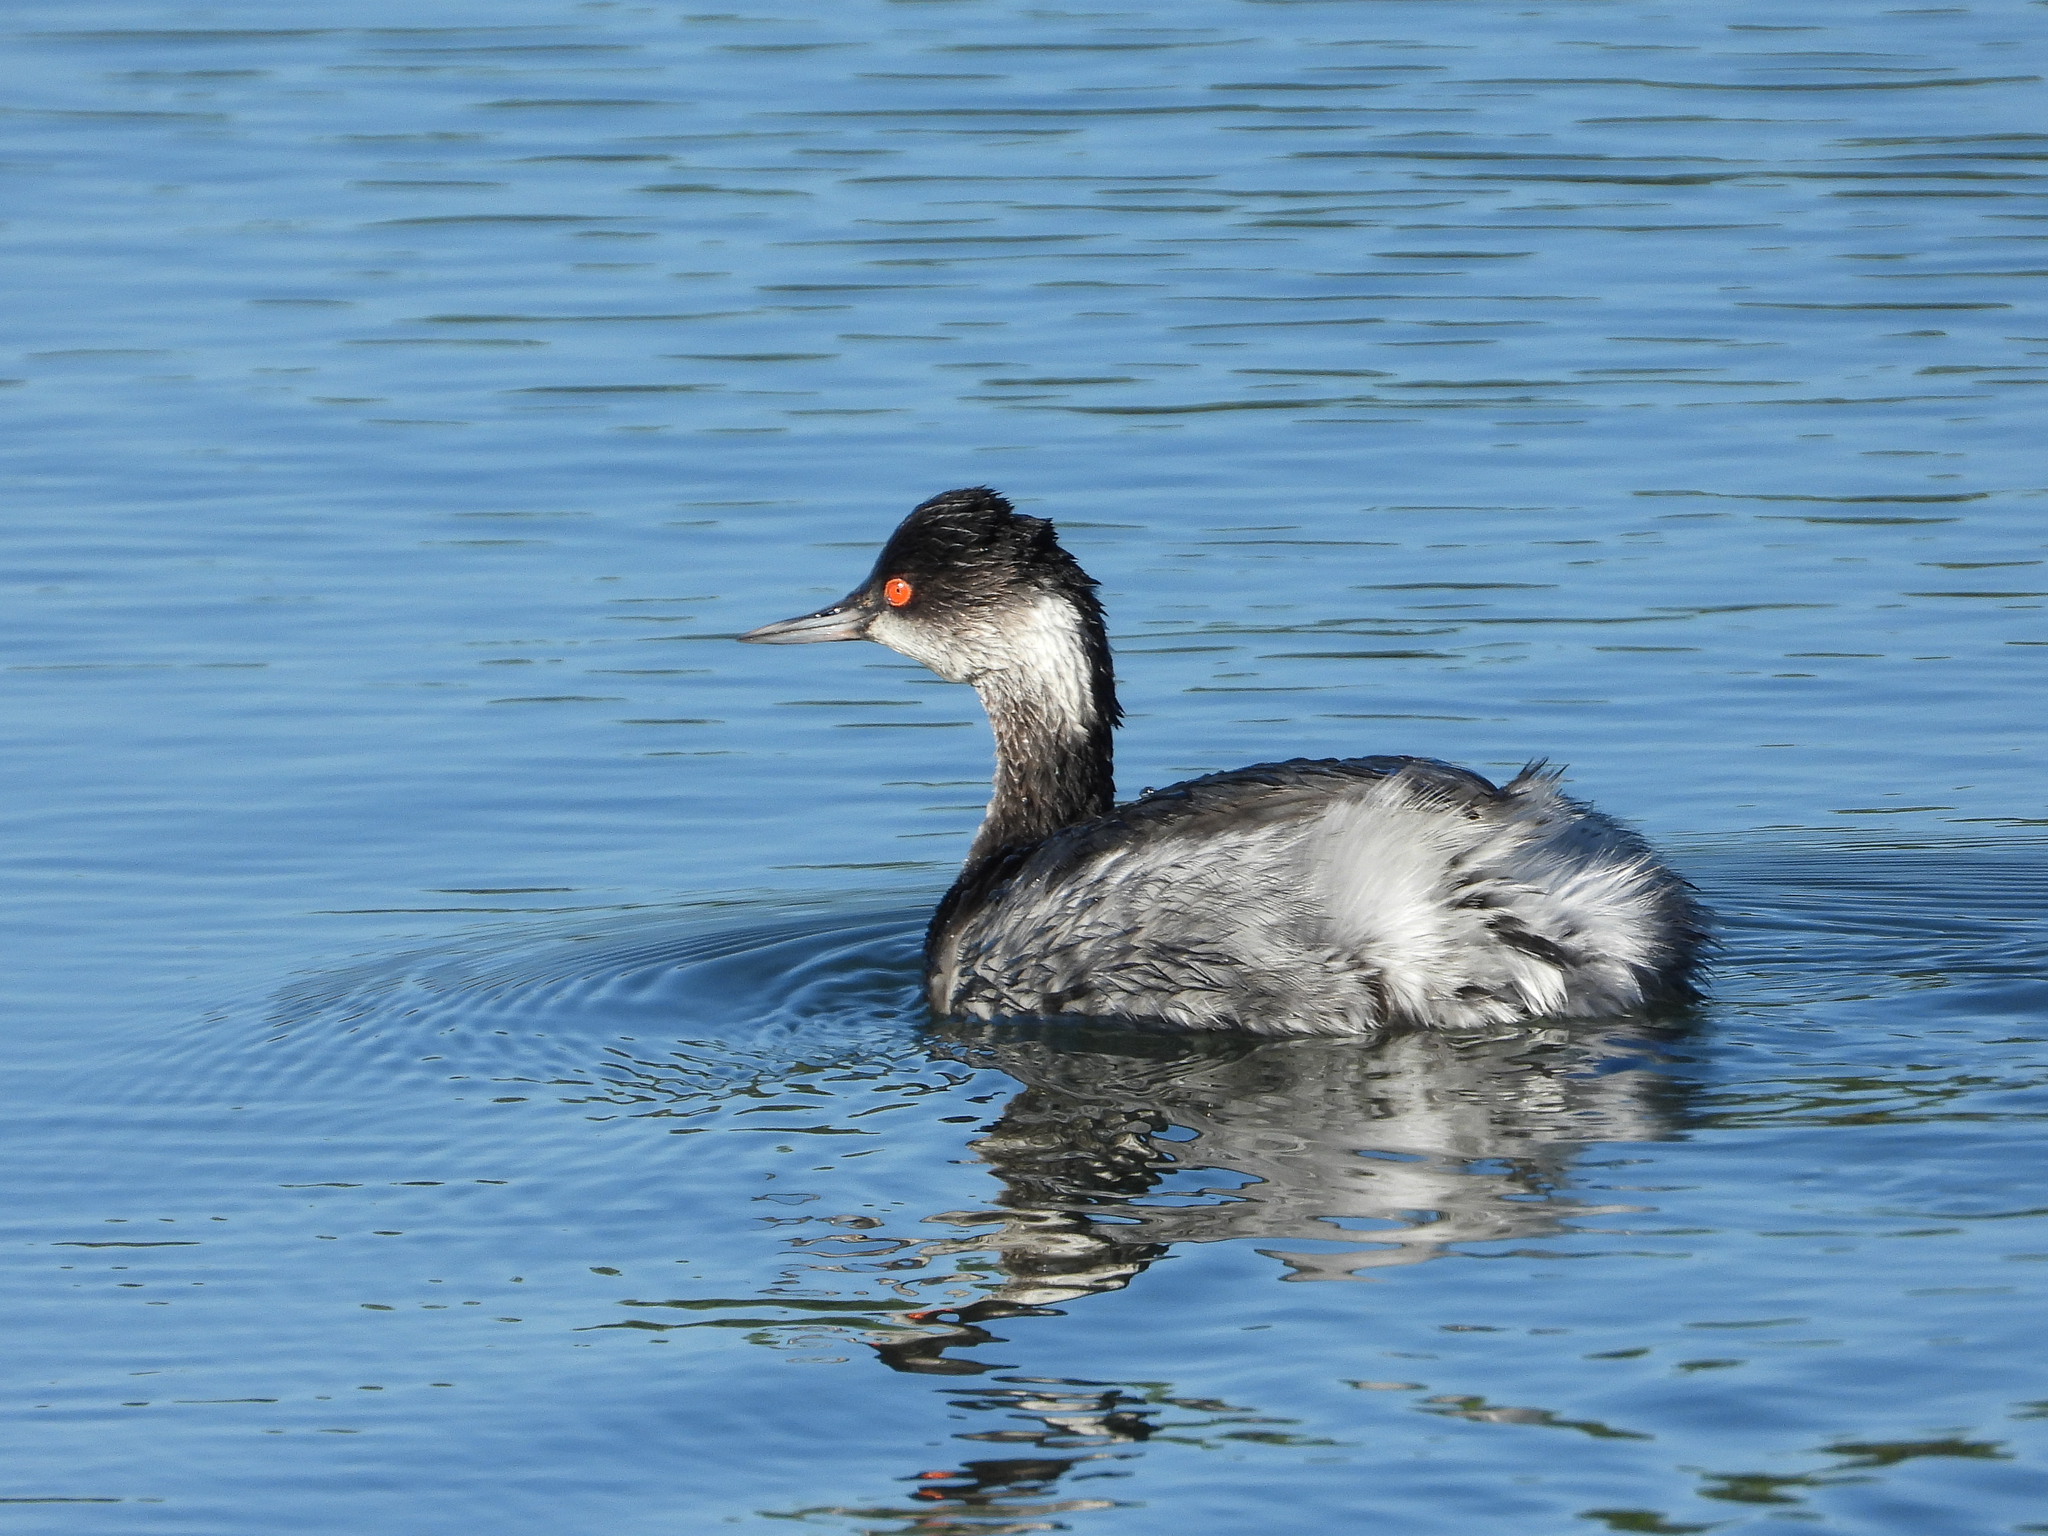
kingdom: Animalia
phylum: Chordata
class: Aves
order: Podicipediformes
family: Podicipedidae
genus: Podiceps
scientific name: Podiceps nigricollis
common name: Black-necked grebe
